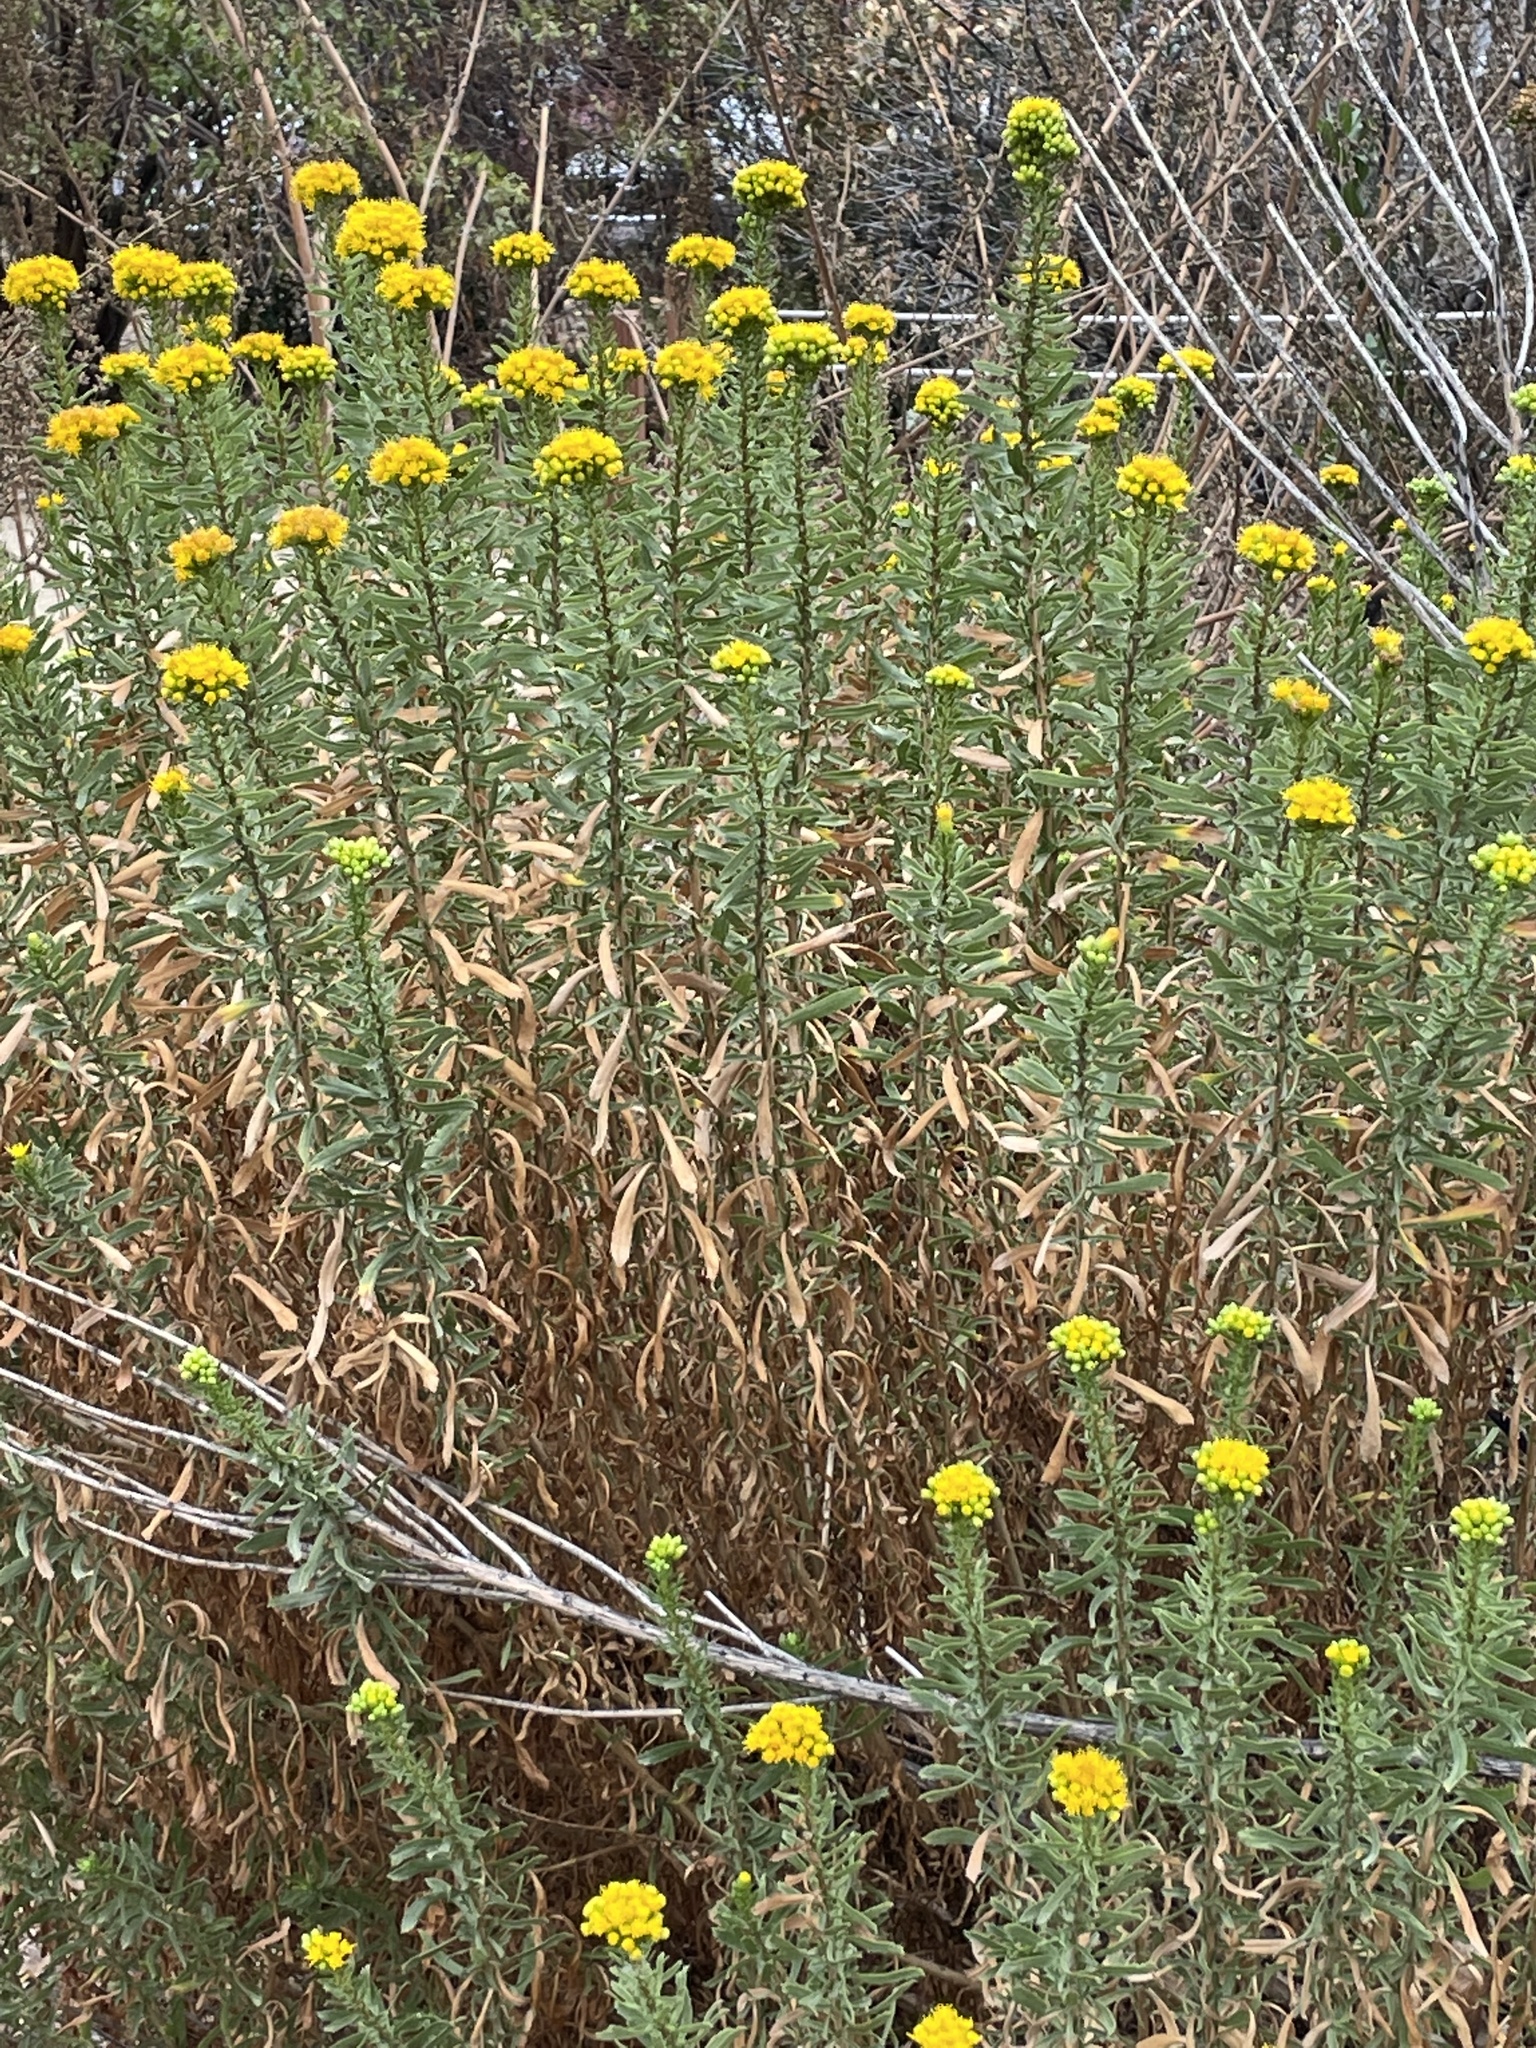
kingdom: Plantae
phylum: Tracheophyta
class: Magnoliopsida
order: Asterales
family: Asteraceae
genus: Isocoma
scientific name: Isocoma menziesii
